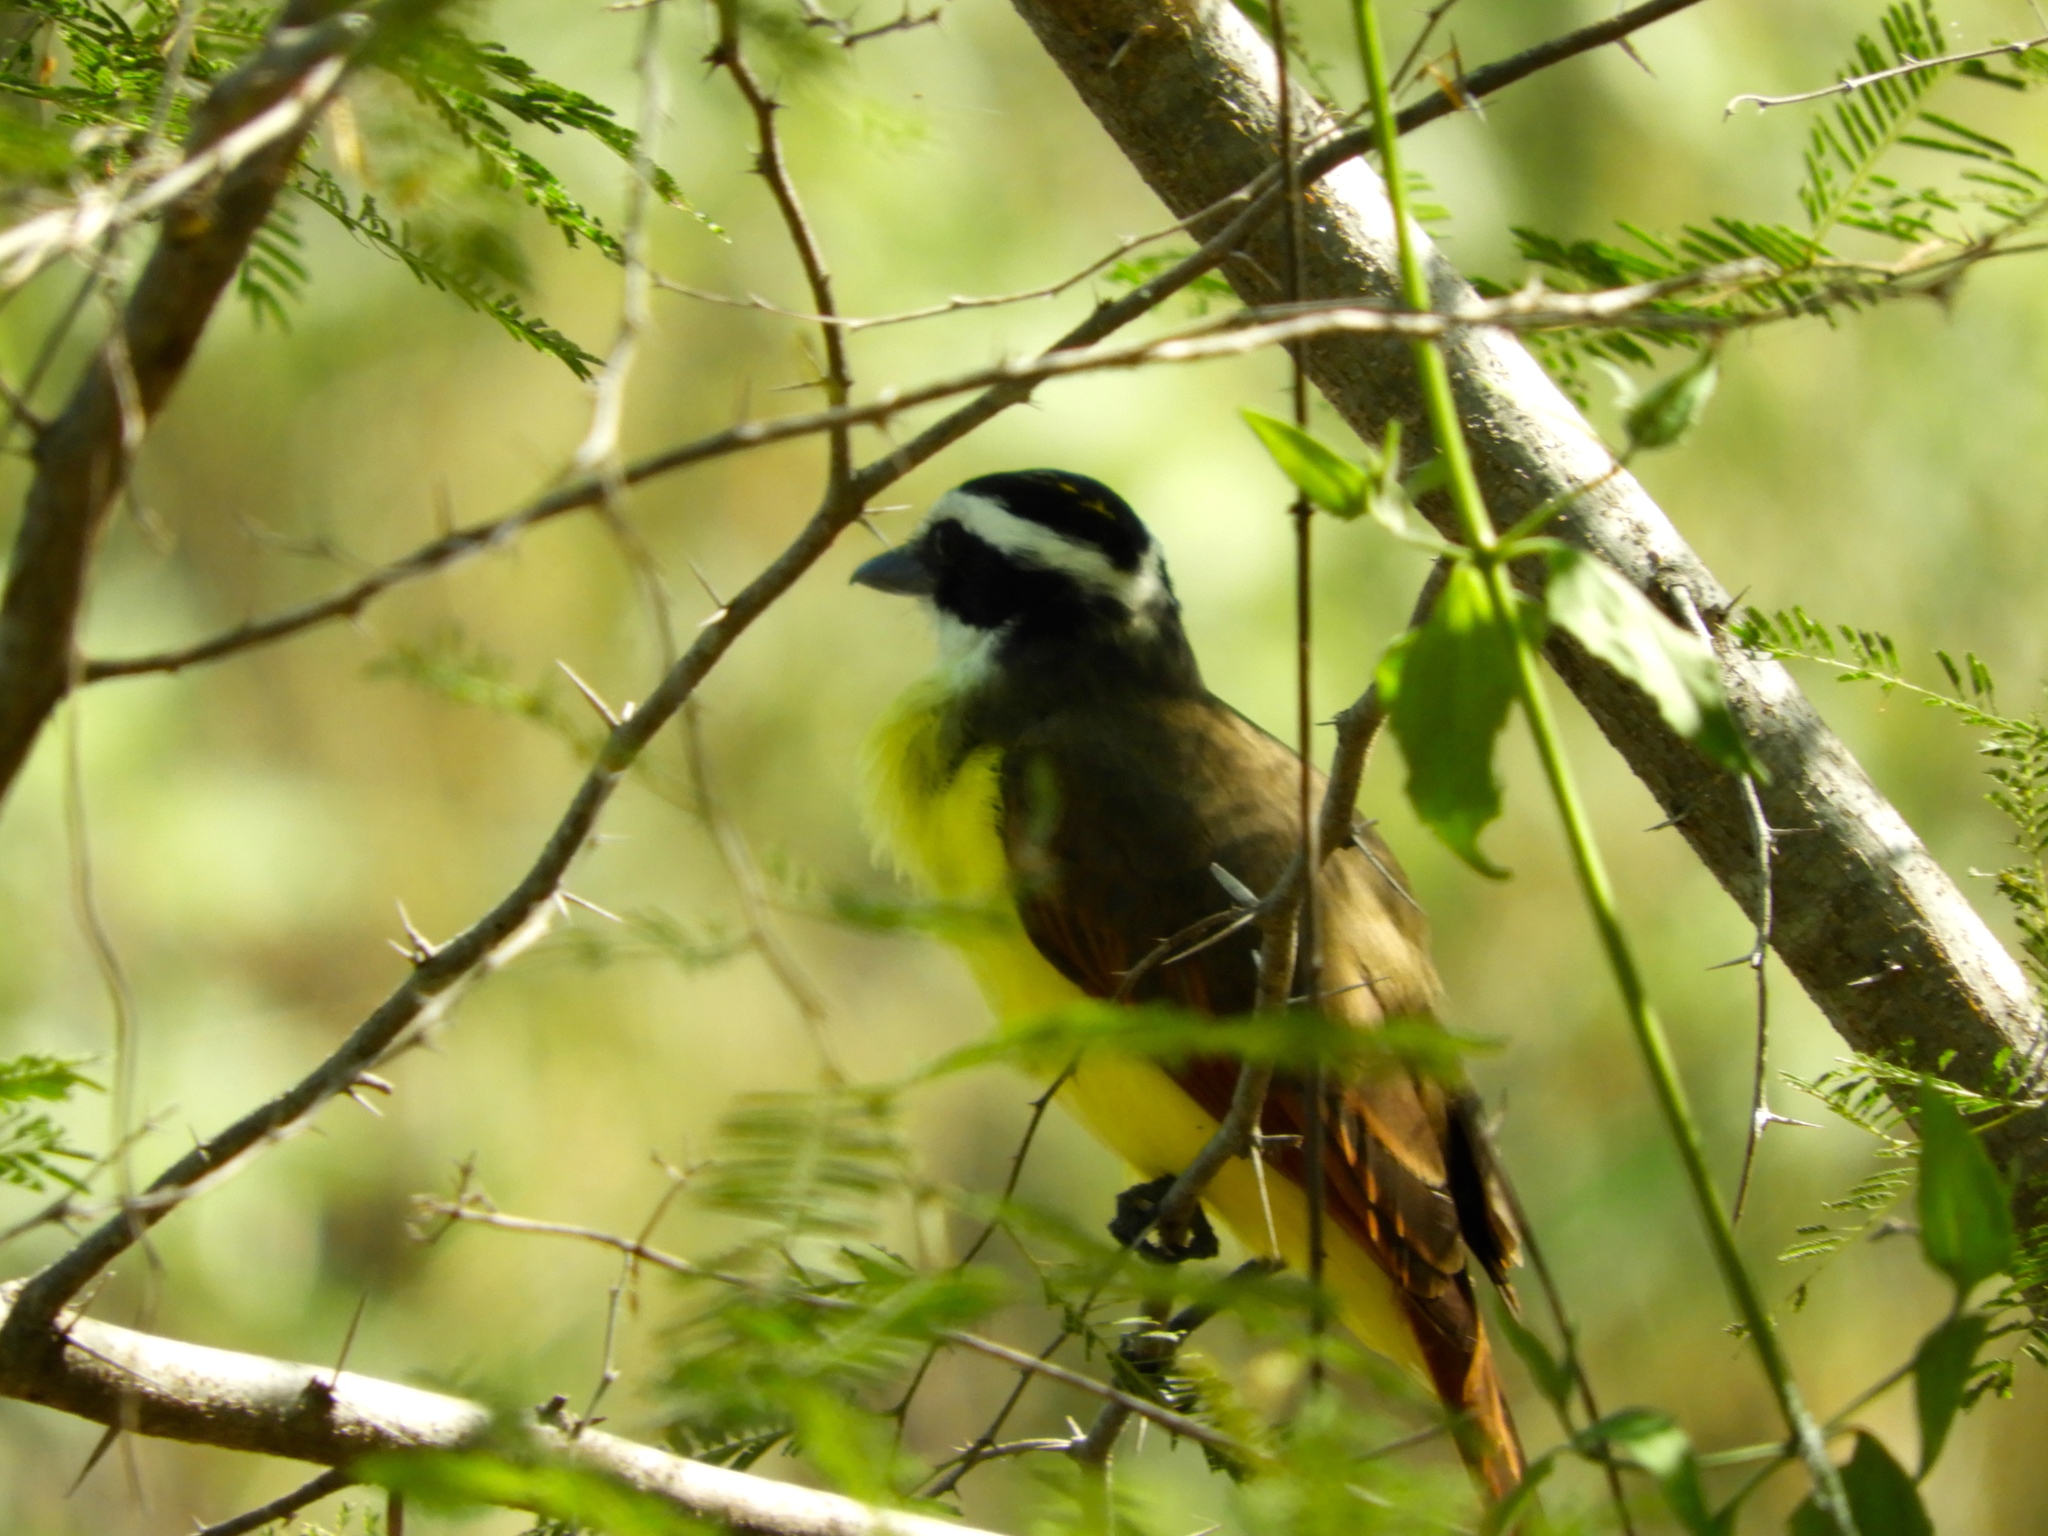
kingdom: Animalia
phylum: Chordata
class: Aves
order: Passeriformes
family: Tyrannidae
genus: Pitangus
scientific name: Pitangus sulphuratus
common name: Great kiskadee
